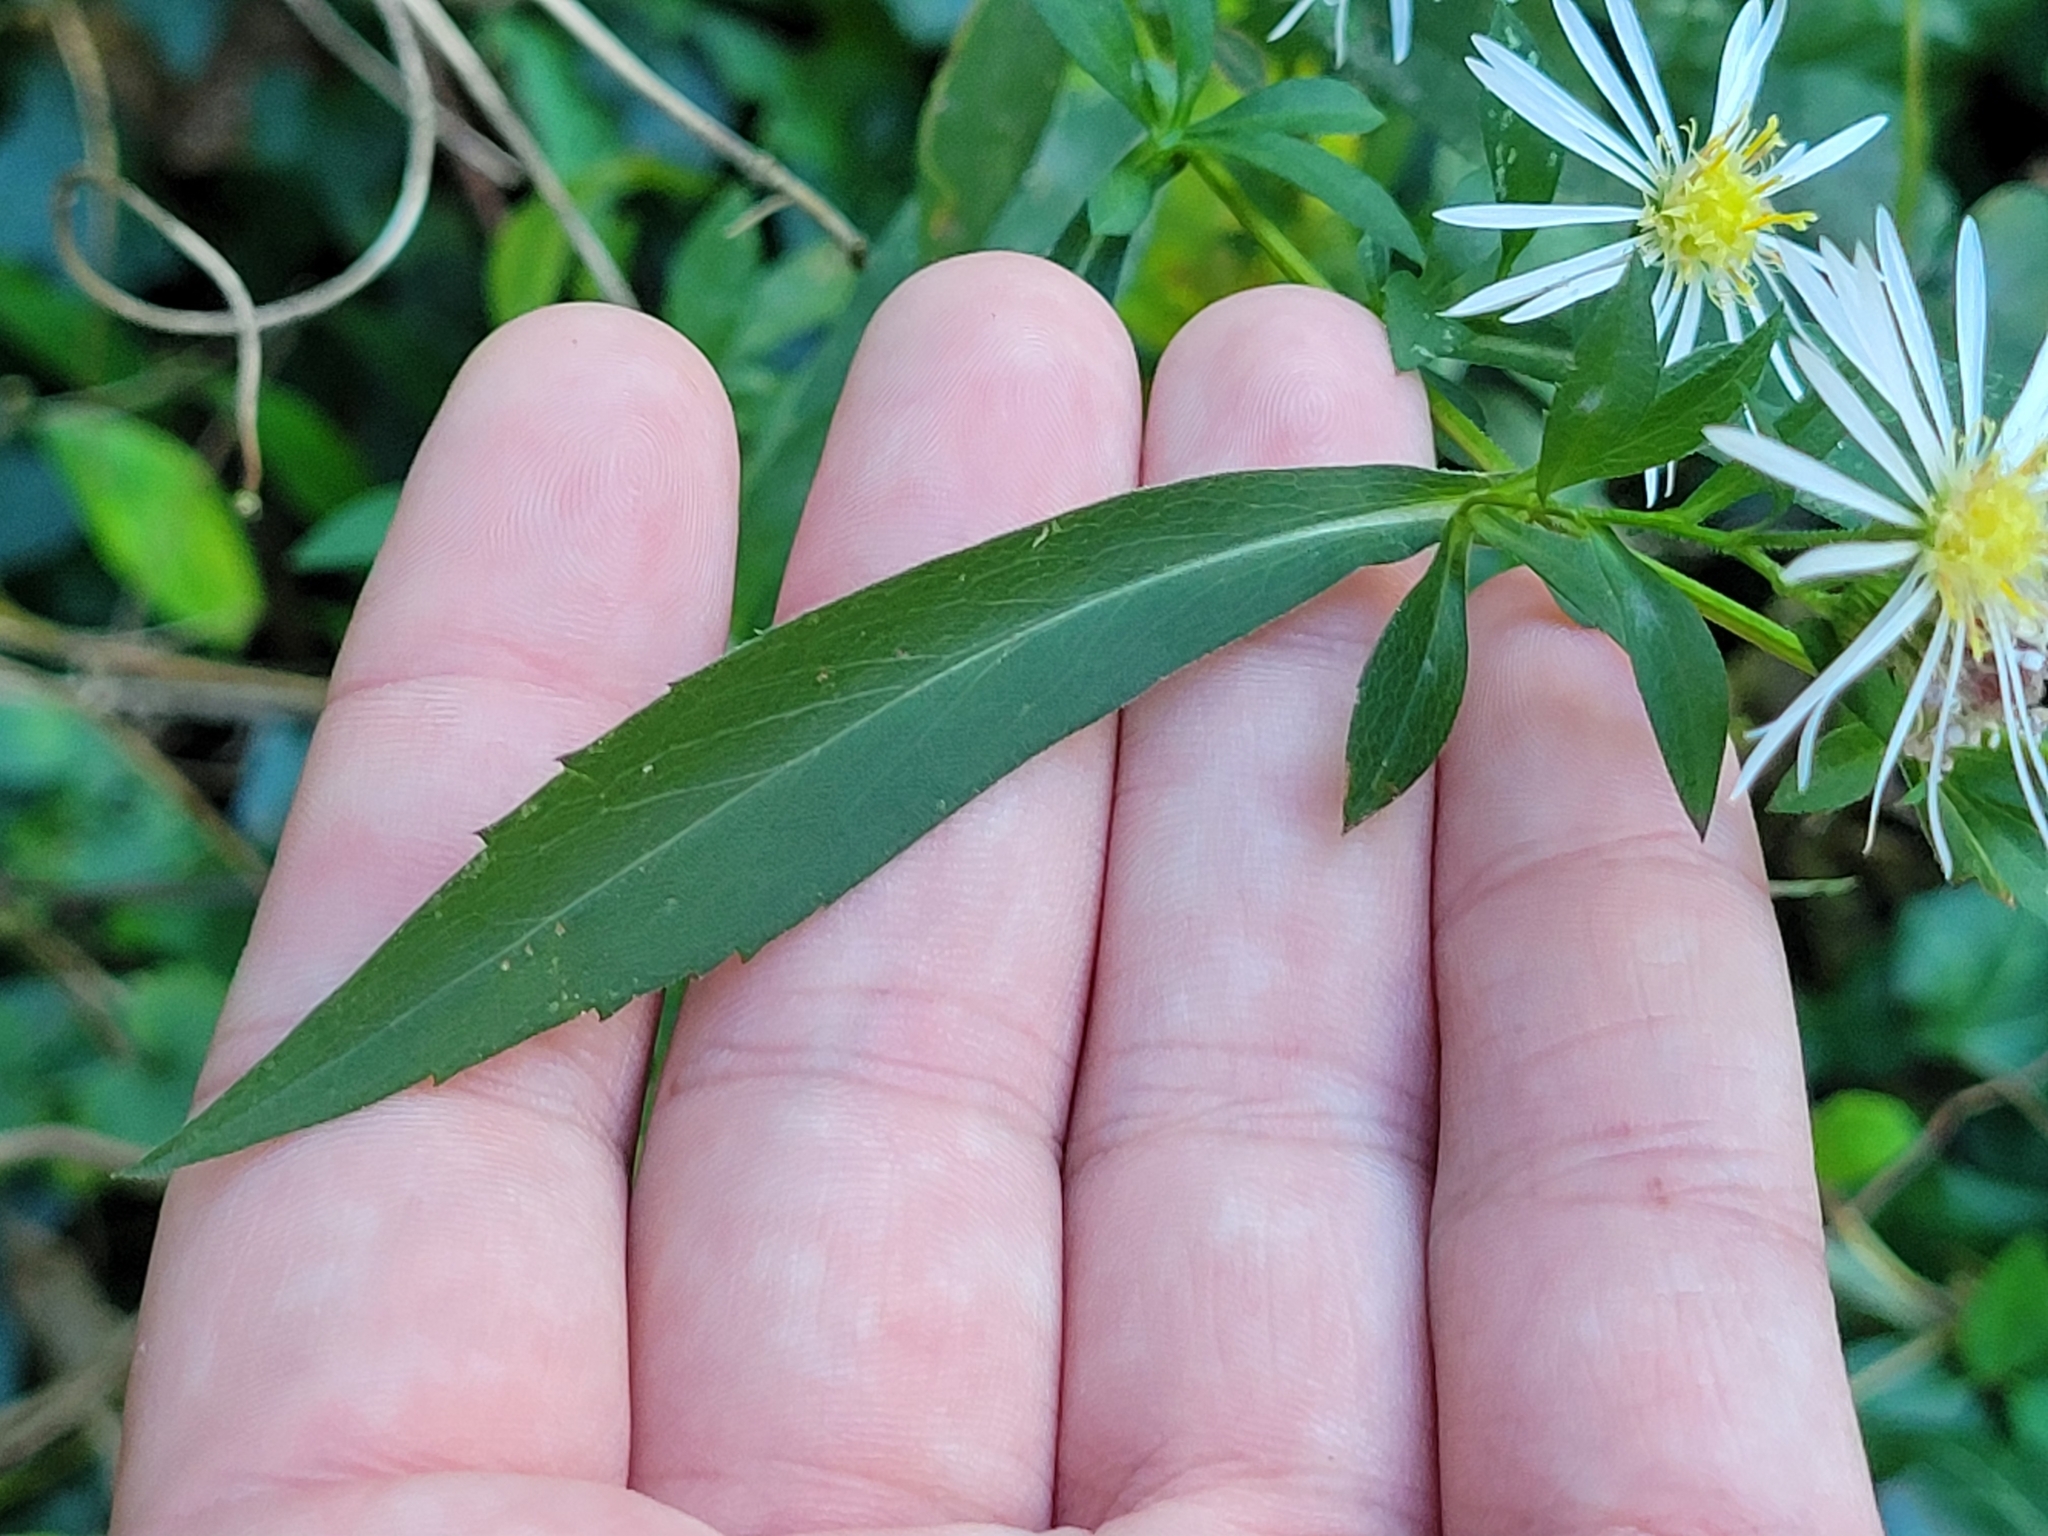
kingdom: Plantae
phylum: Tracheophyta
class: Magnoliopsida
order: Asterales
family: Asteraceae
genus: Symphyotrichum
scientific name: Symphyotrichum lanceolatum
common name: Panicled aster
